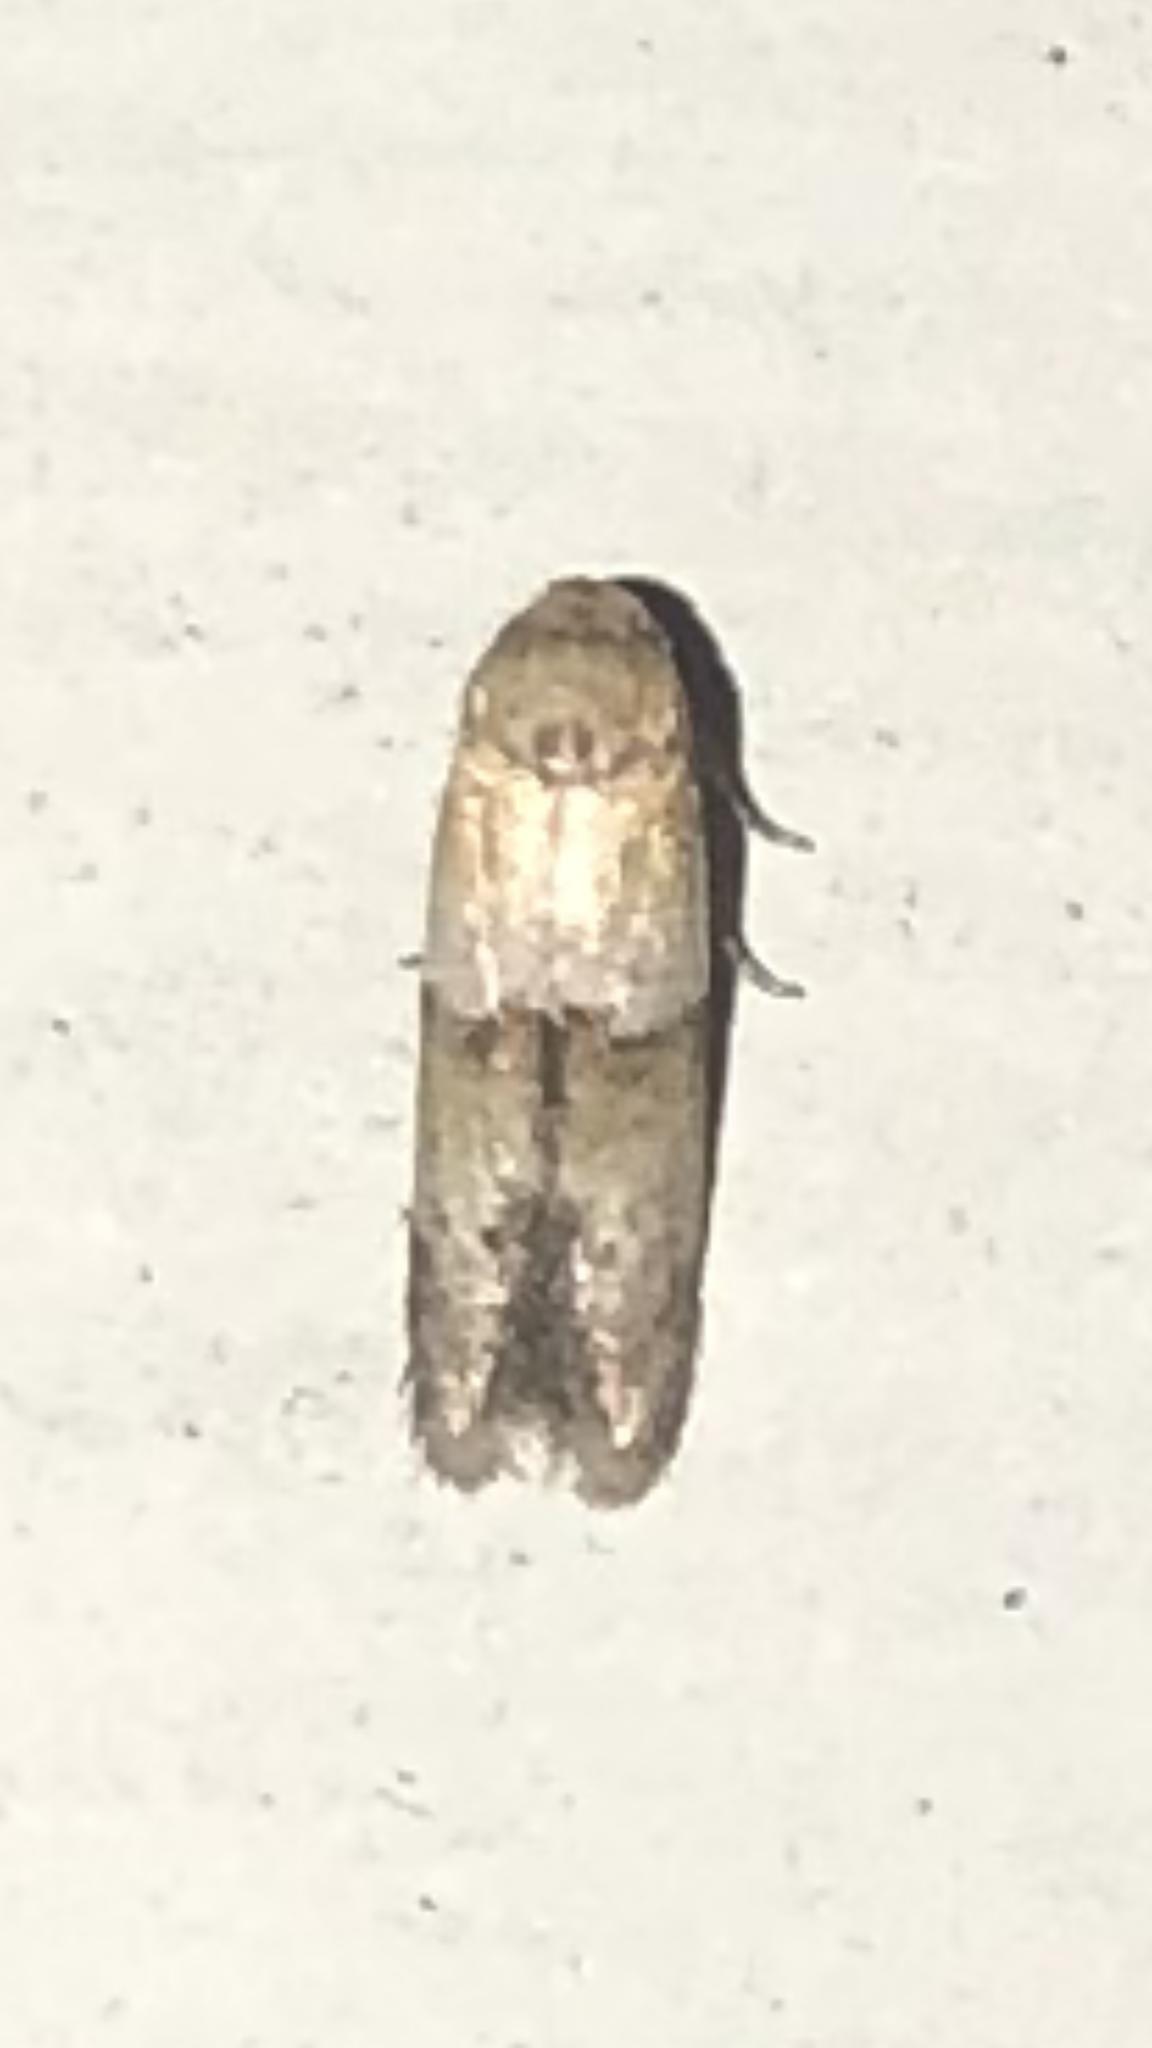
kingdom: Animalia
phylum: Arthropoda
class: Insecta
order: Lepidoptera
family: Blastobasidae
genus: Blastobasis
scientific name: Blastobasis pulchella
